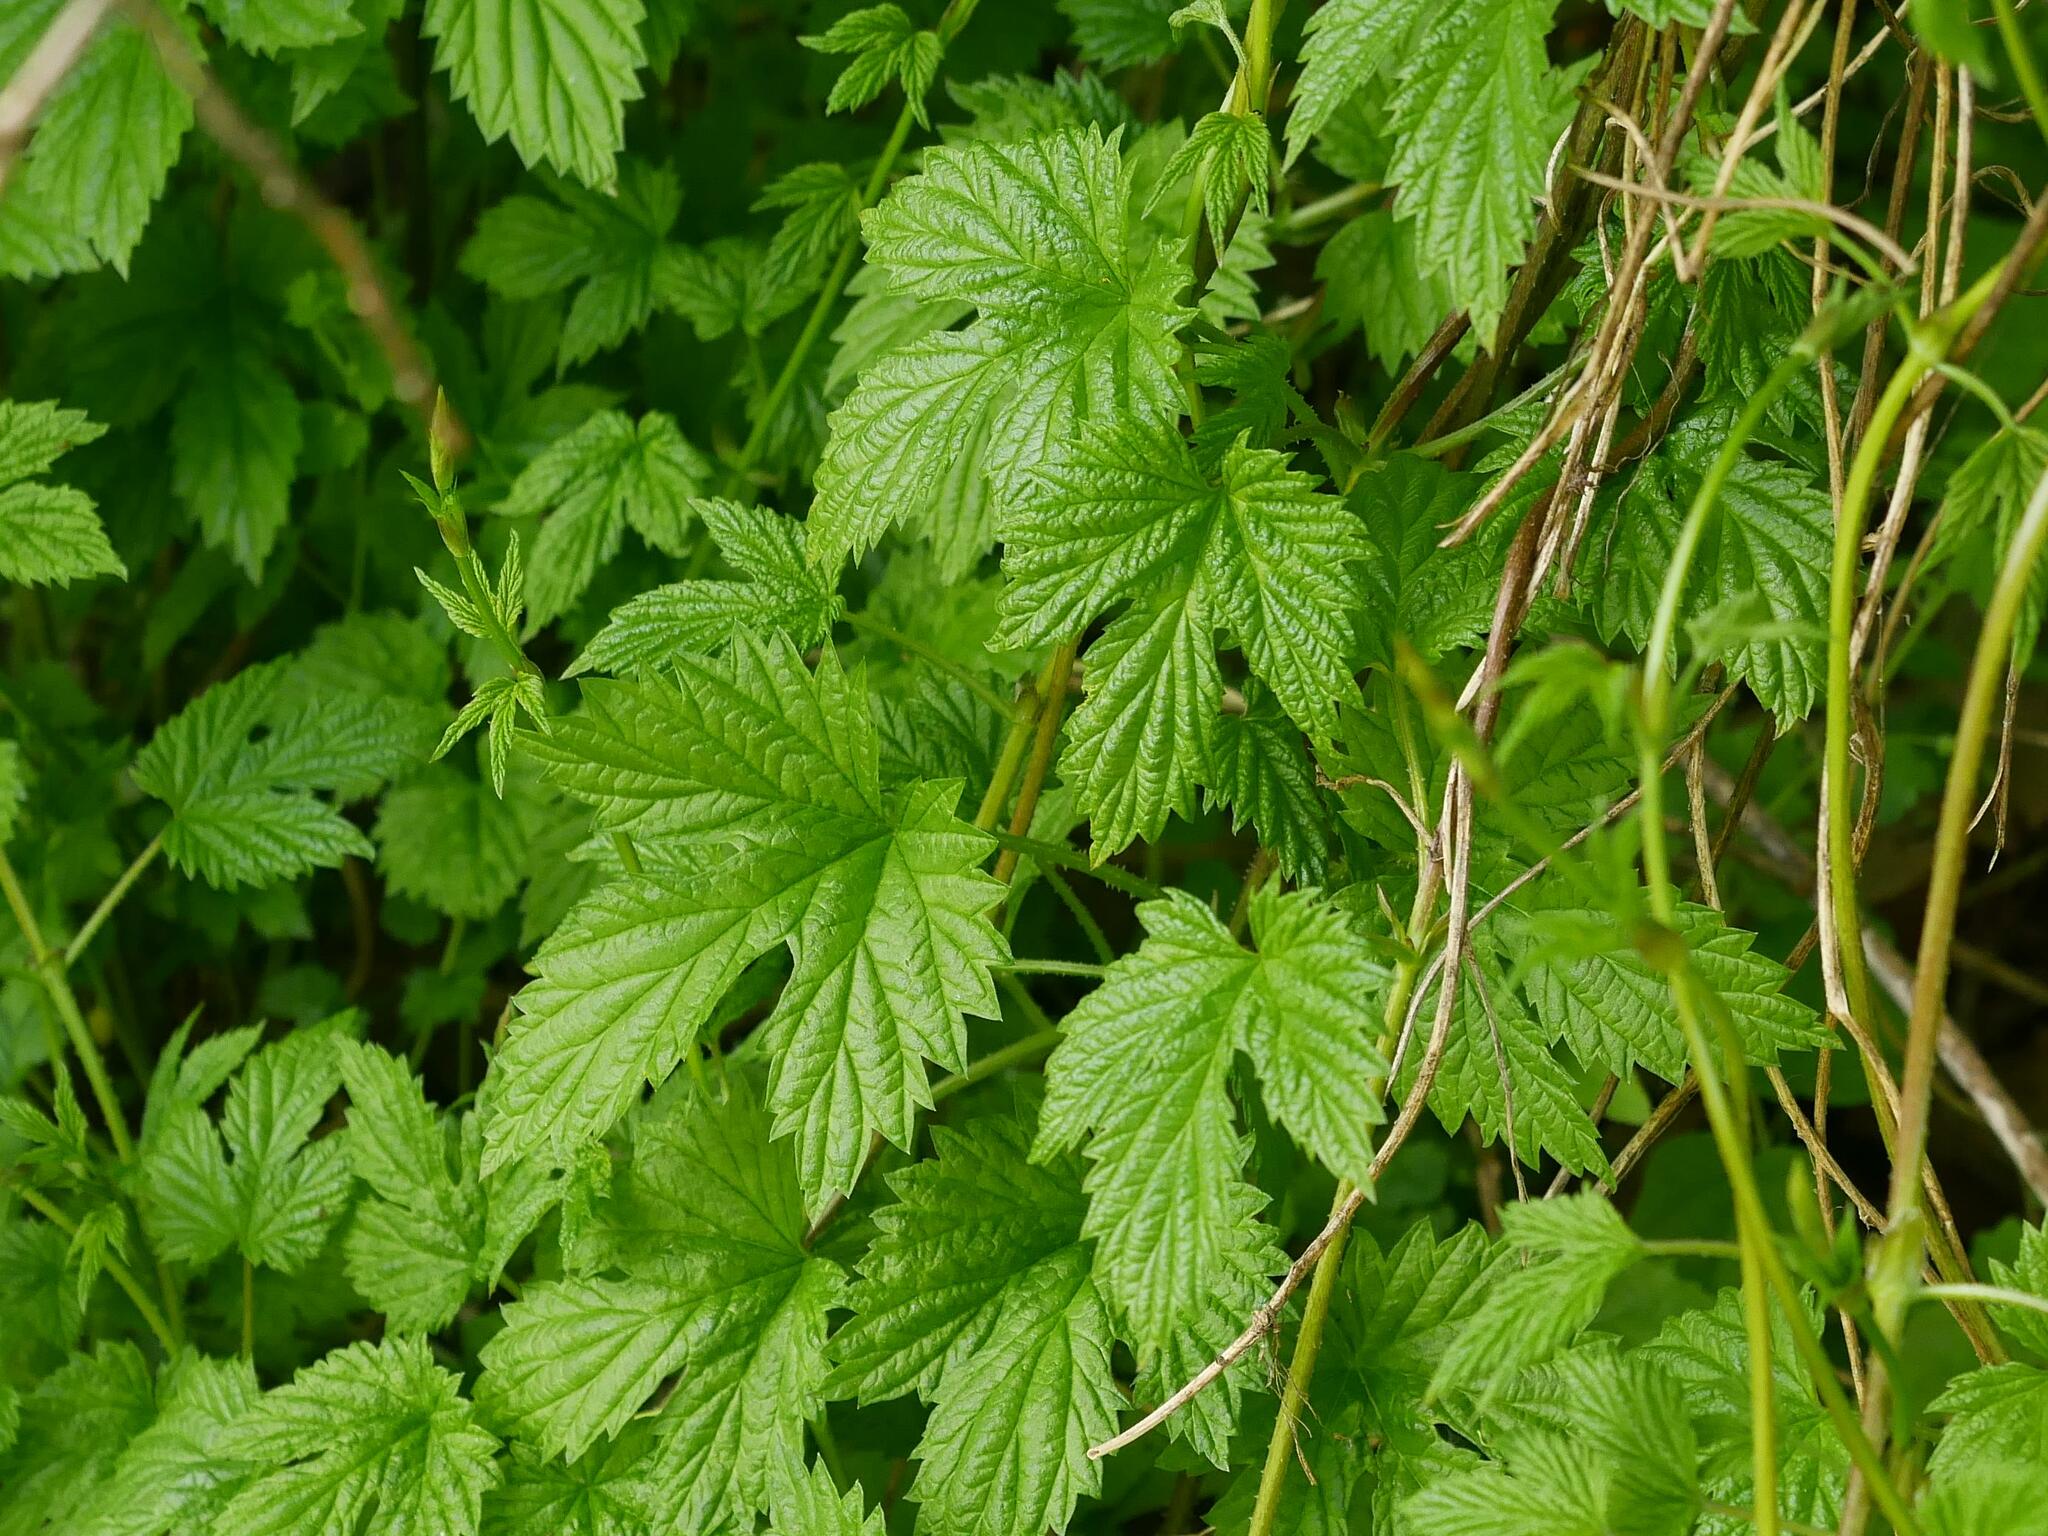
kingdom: Plantae
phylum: Tracheophyta
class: Magnoliopsida
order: Rosales
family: Cannabaceae
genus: Humulus
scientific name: Humulus lupulus
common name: Hop
